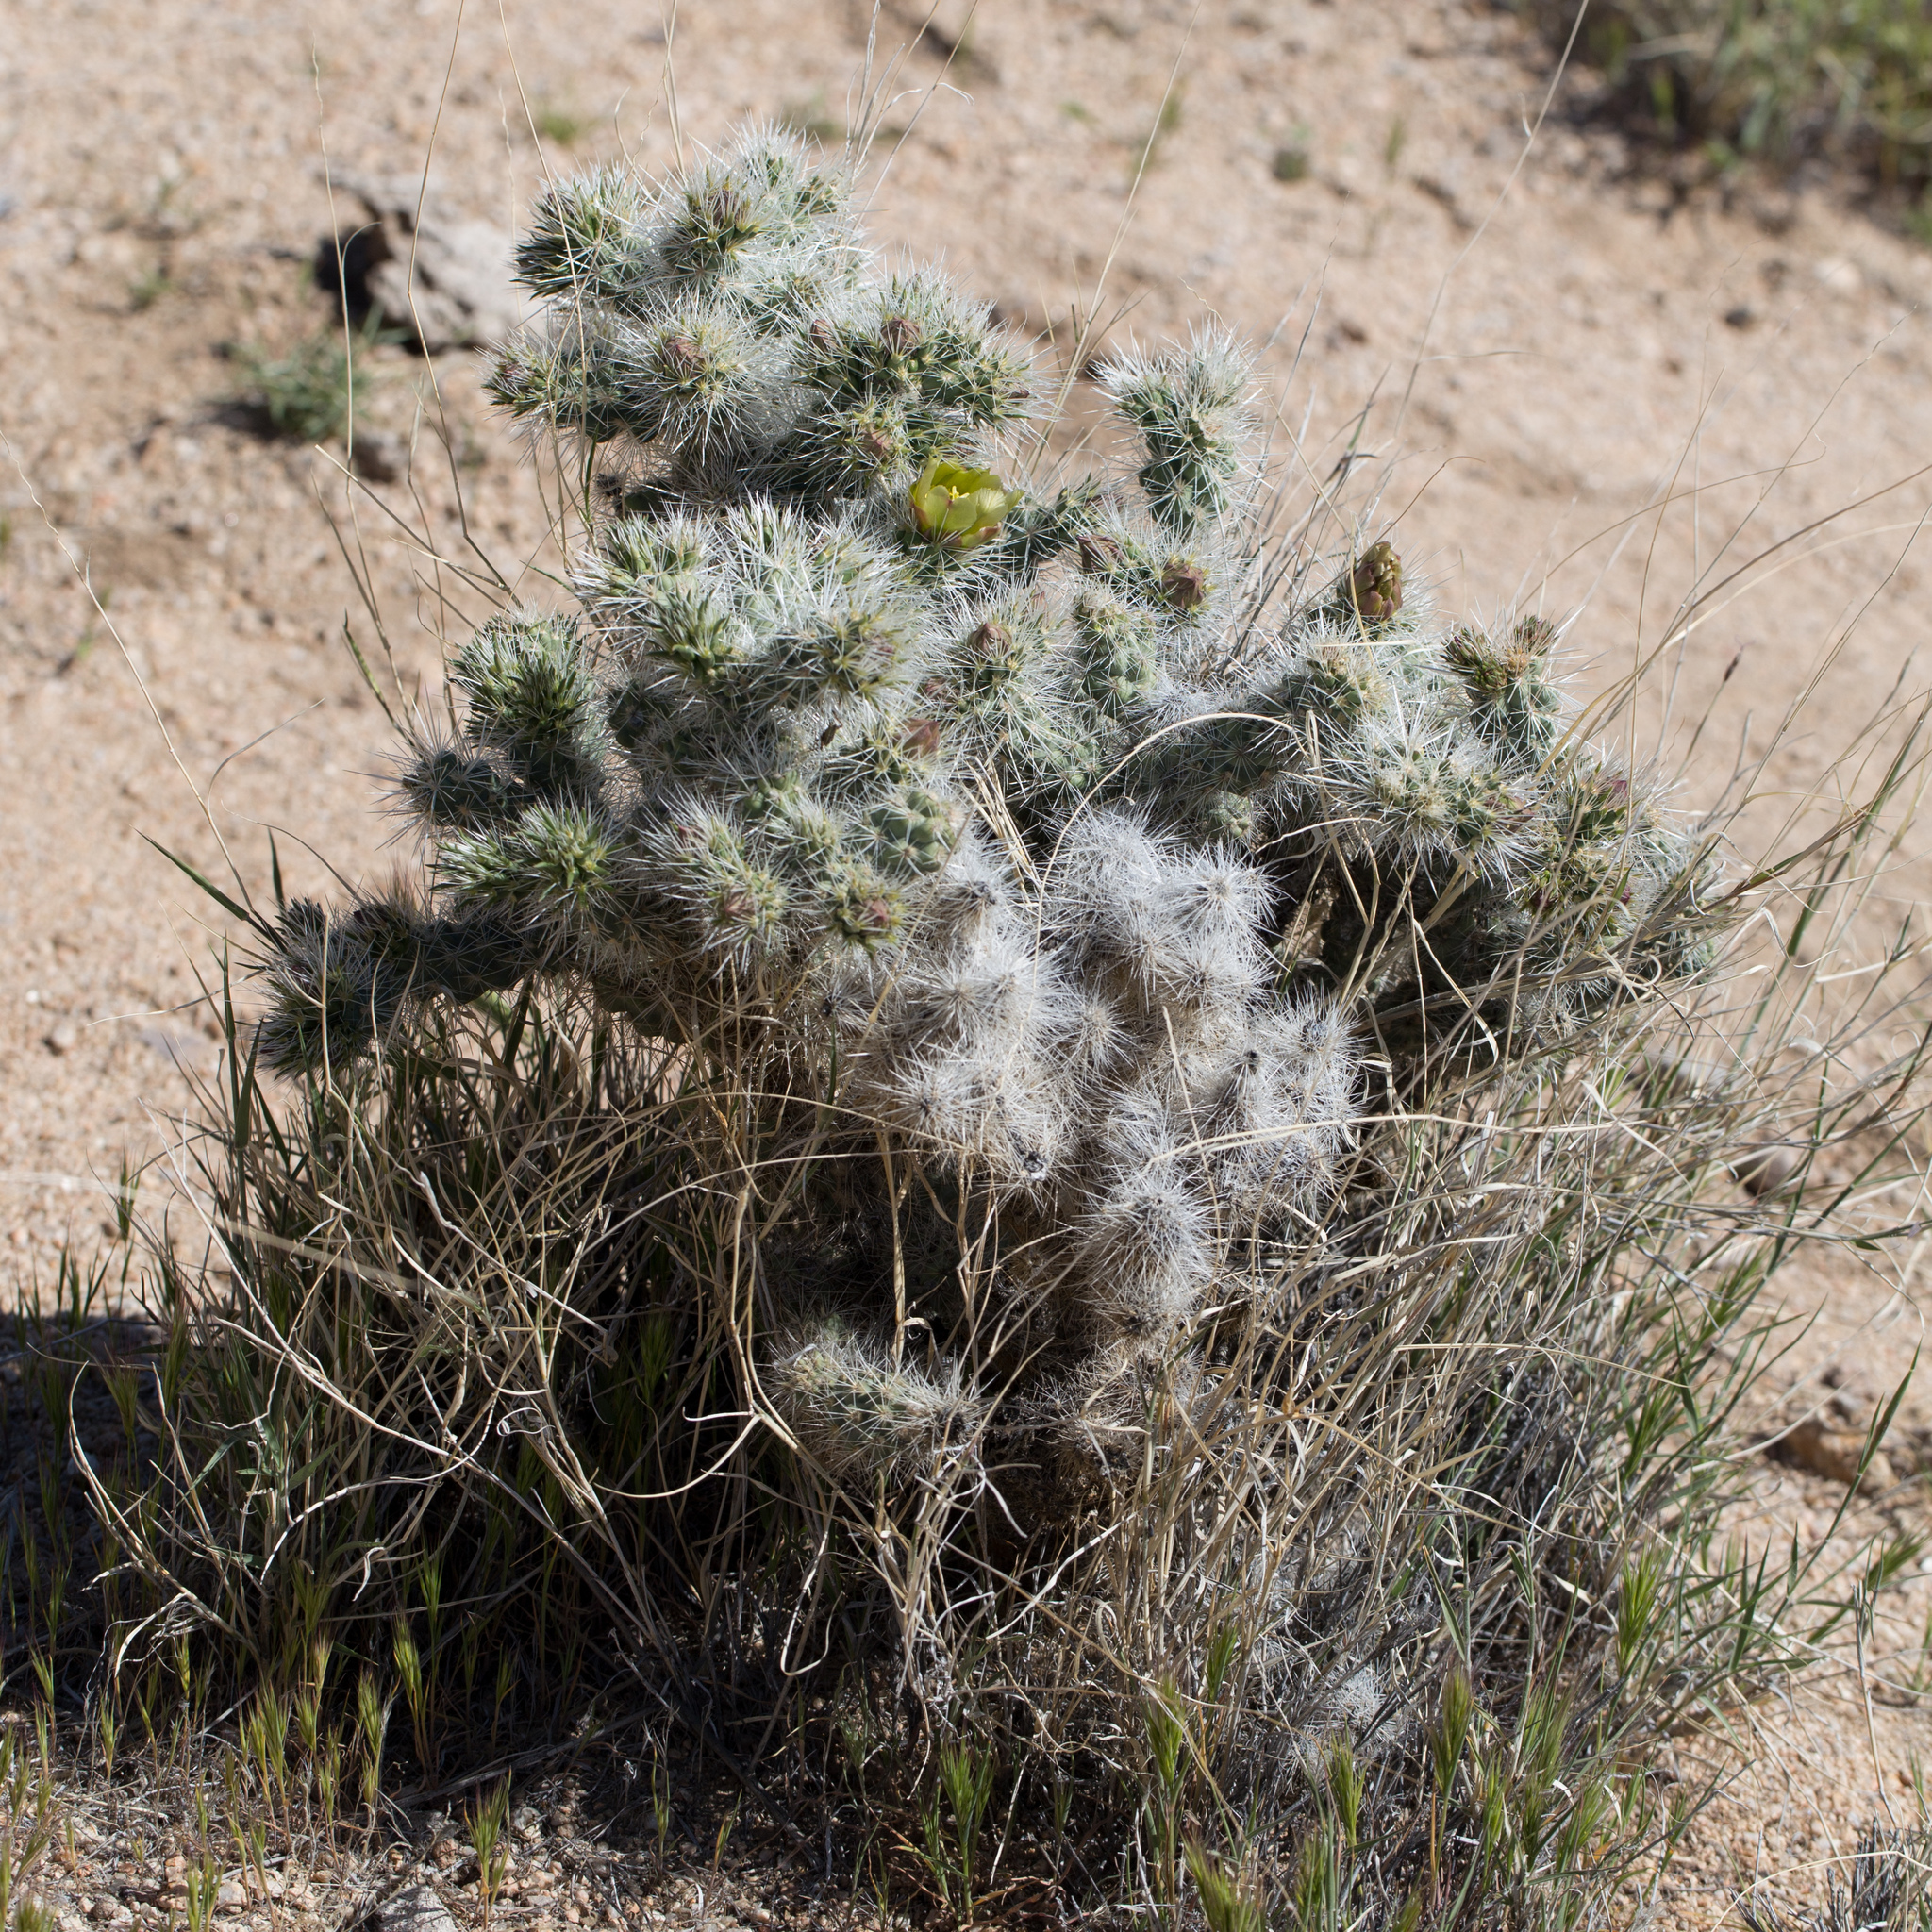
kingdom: Plantae
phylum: Tracheophyta
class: Magnoliopsida
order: Caryophyllales
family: Cactaceae
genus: Cylindropuntia
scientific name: Cylindropuntia echinocarpa
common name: Ground cholla
